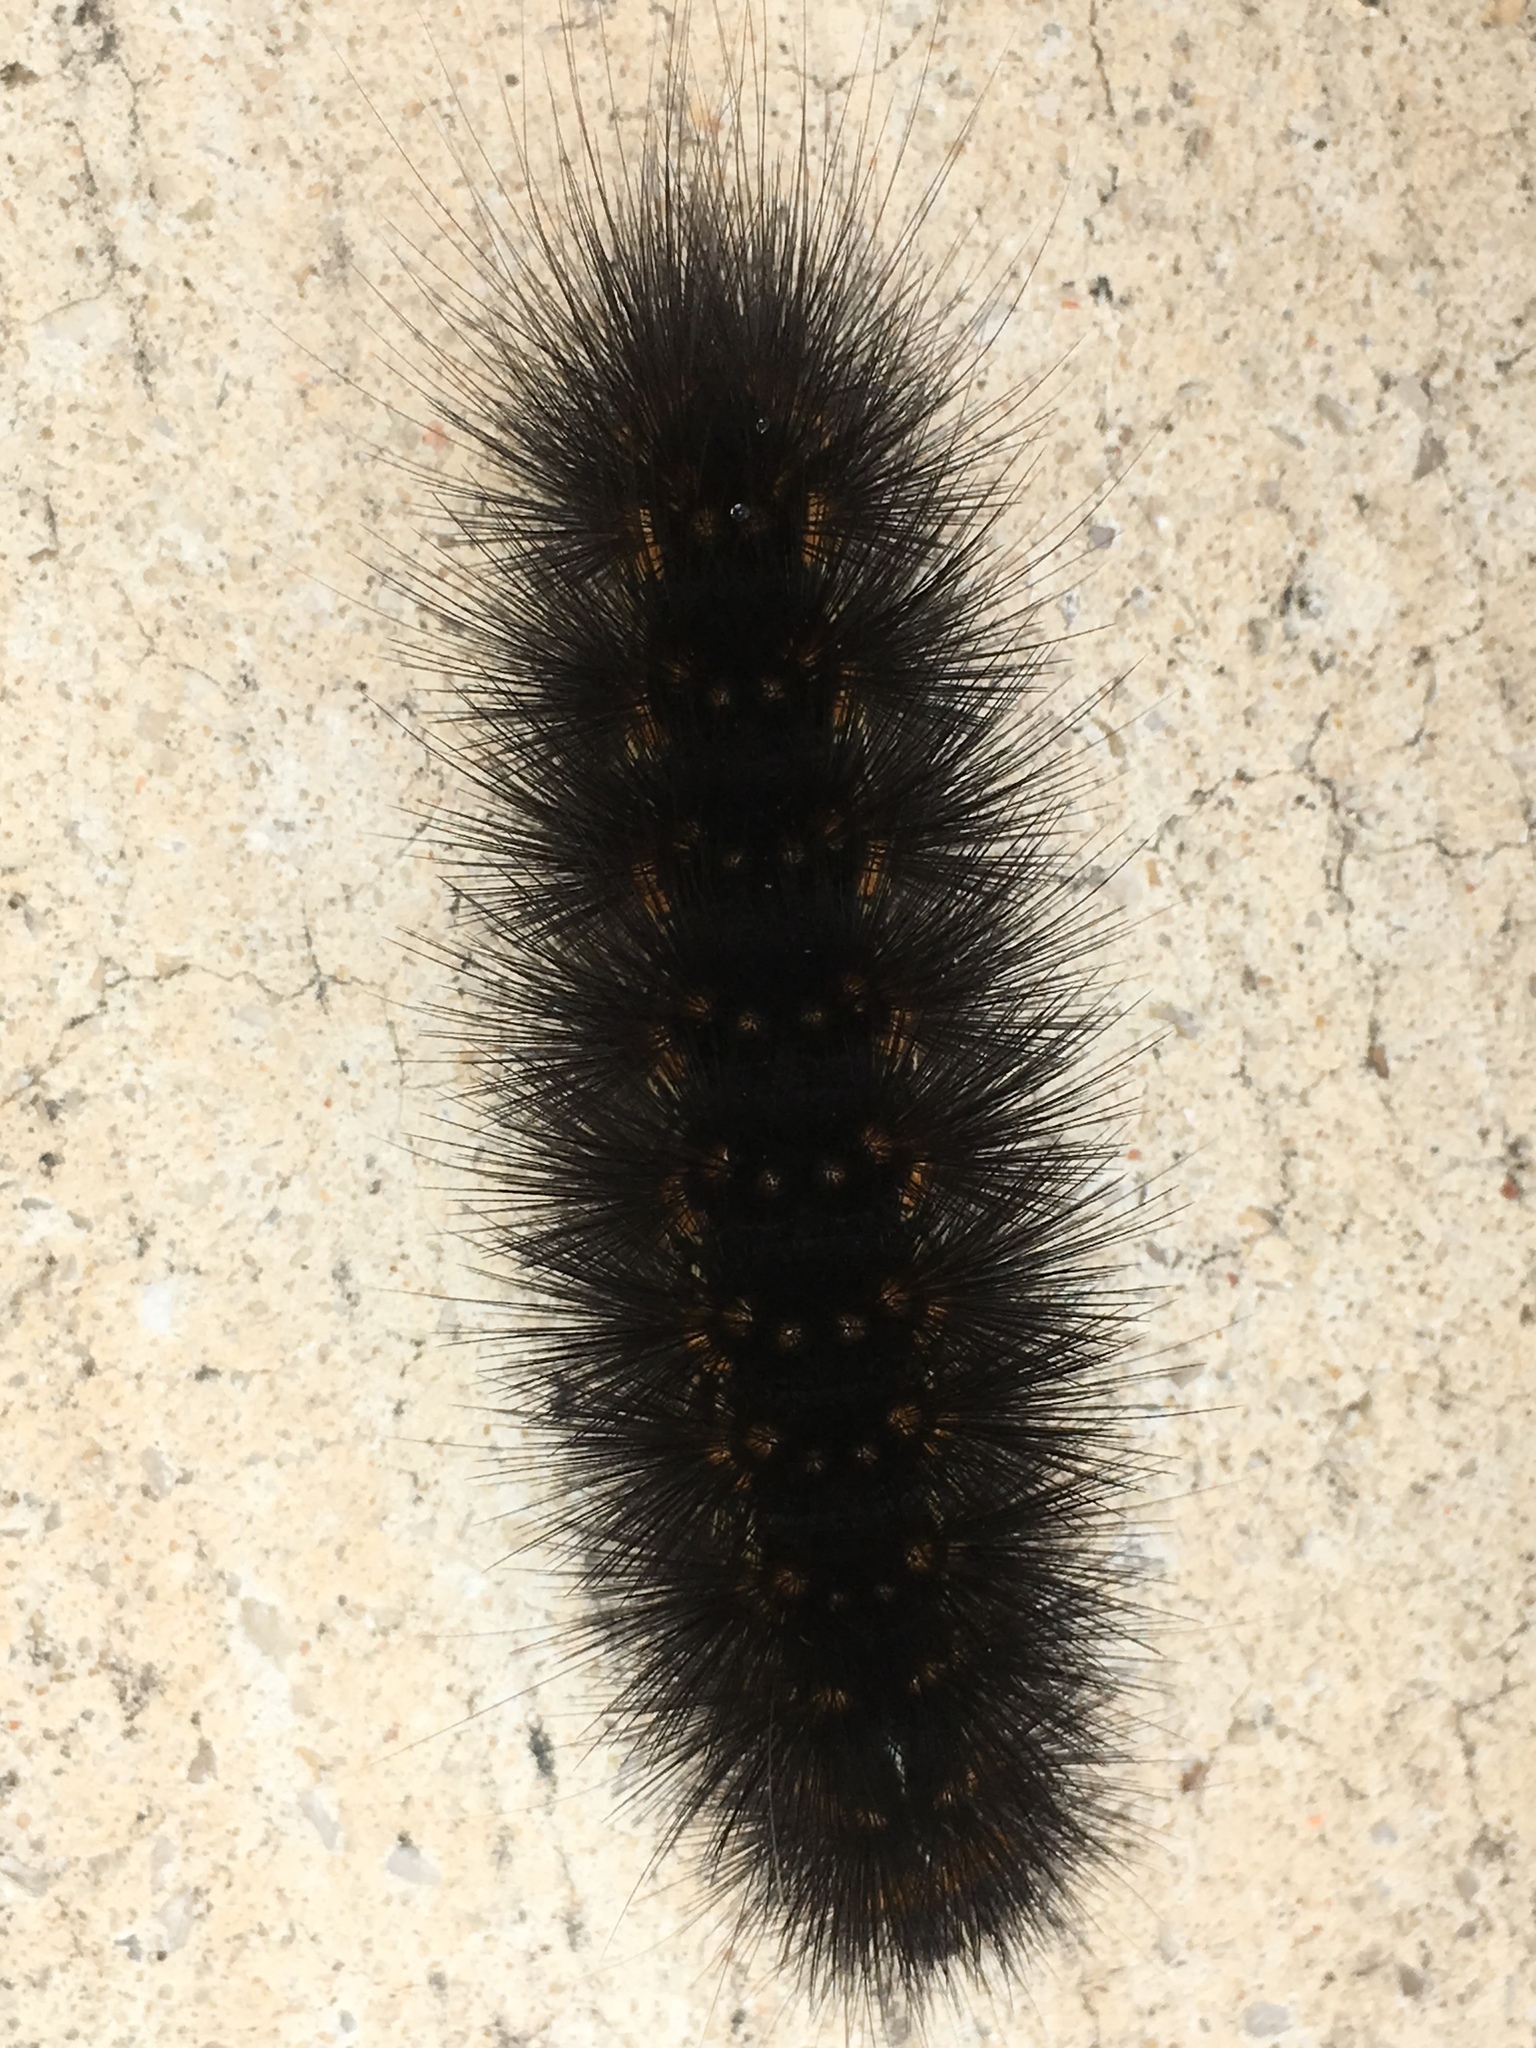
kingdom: Animalia
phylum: Arthropoda
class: Insecta
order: Lepidoptera
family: Erebidae
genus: Estigmene
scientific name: Estigmene acrea
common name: Salt marsh moth
